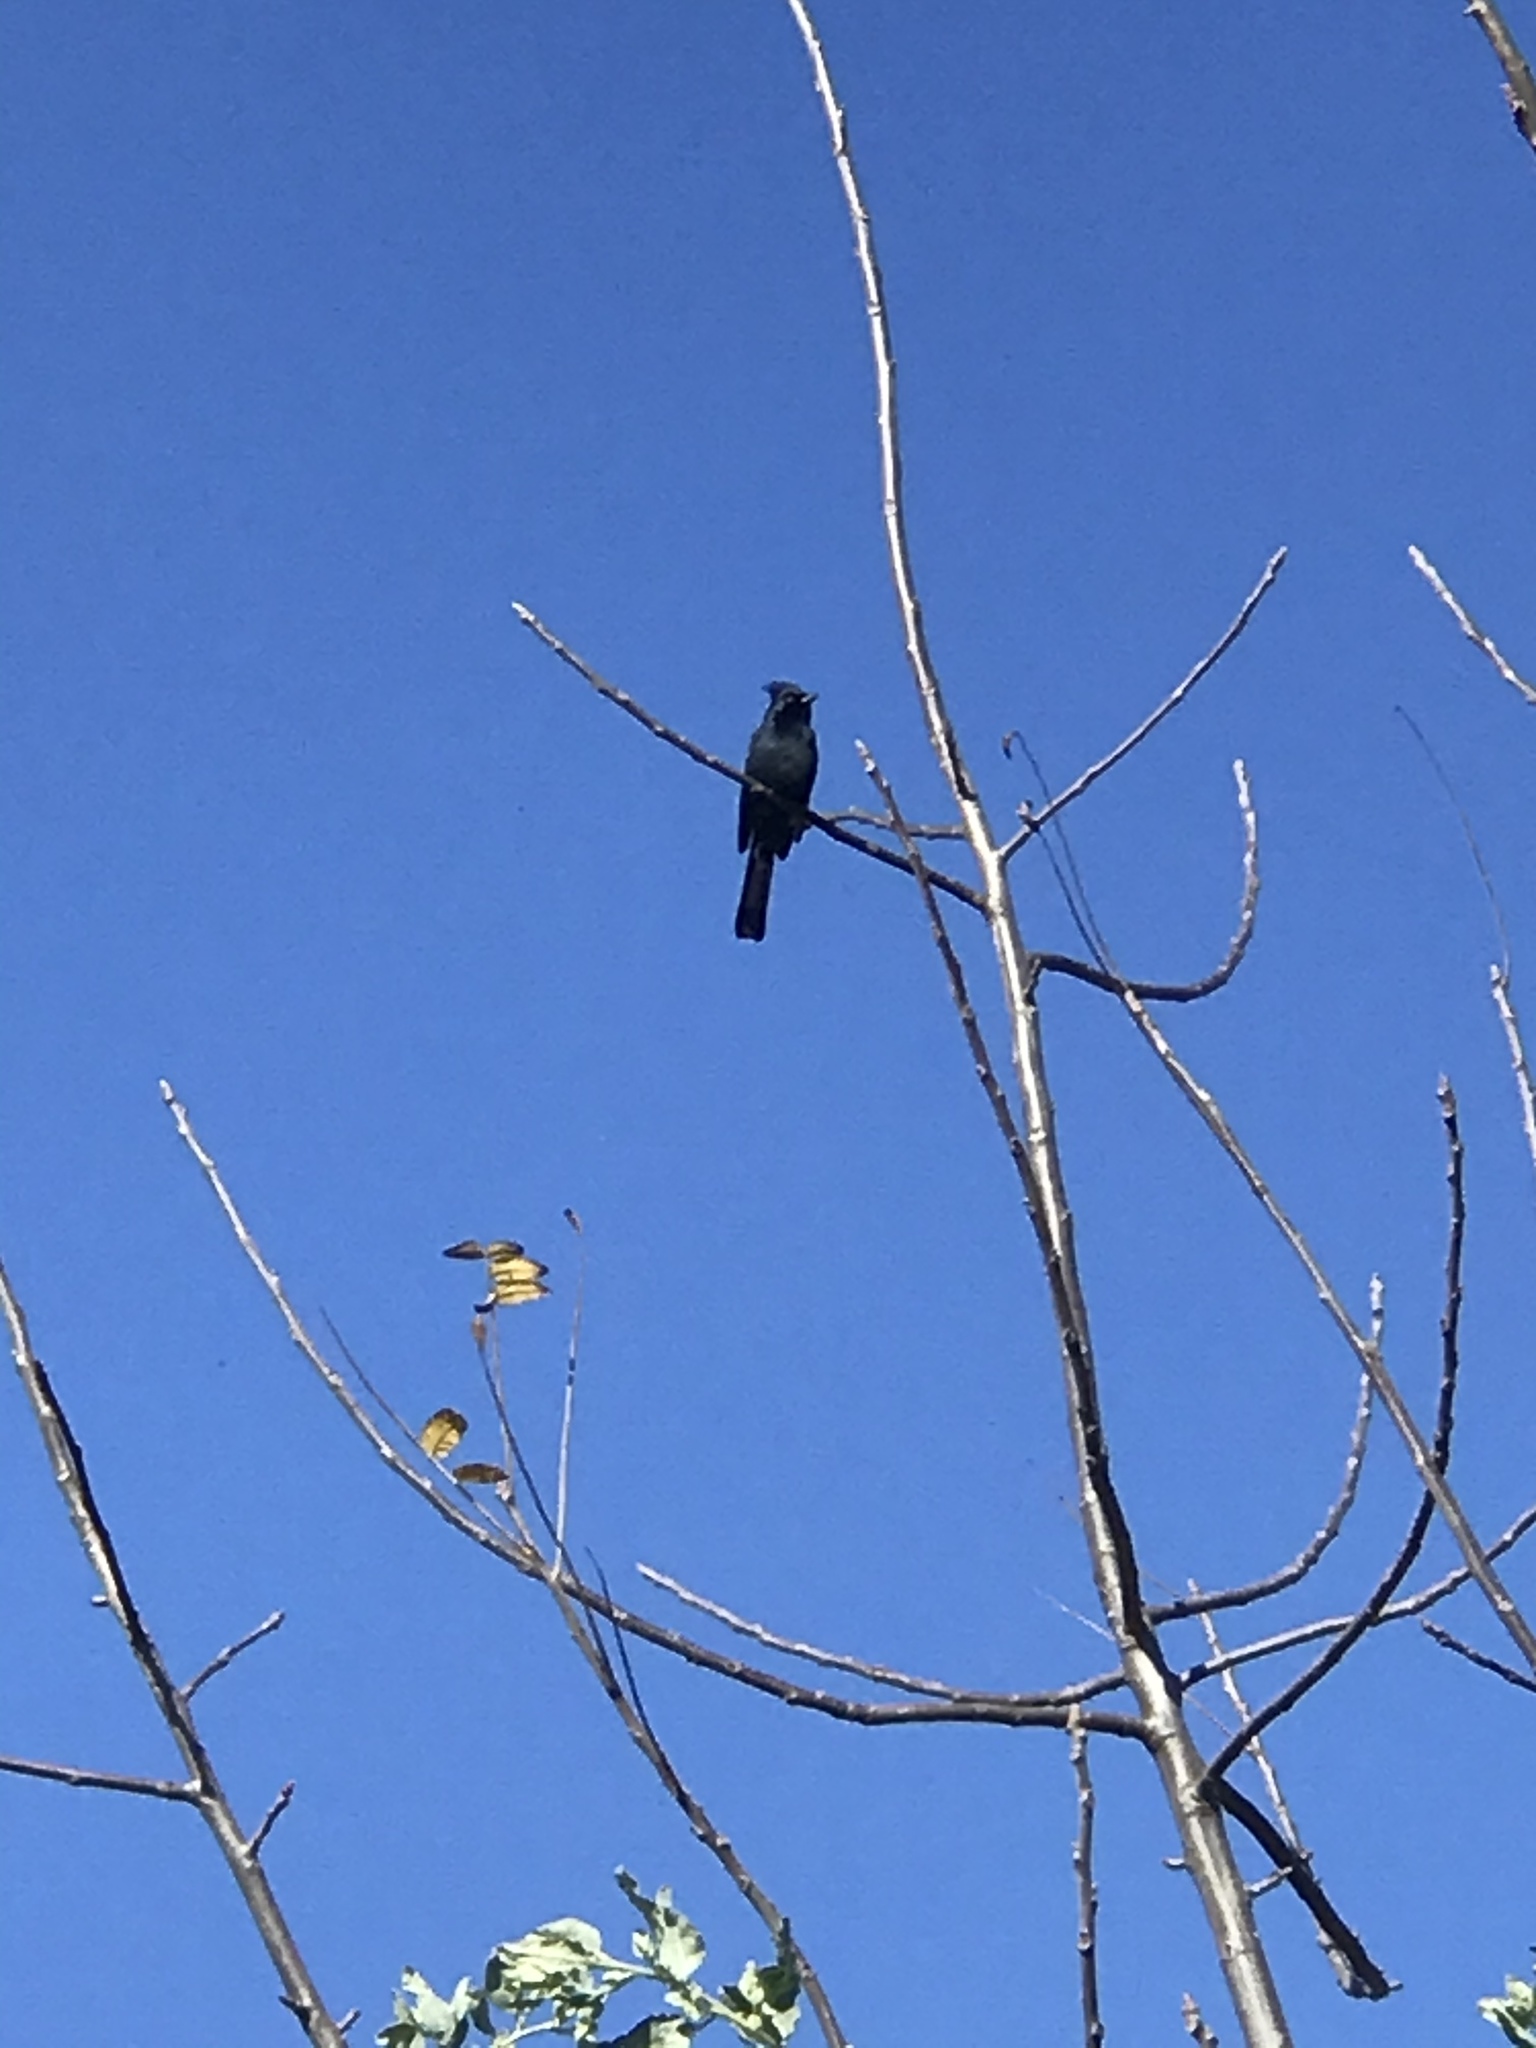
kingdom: Animalia
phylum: Chordata
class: Aves
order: Passeriformes
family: Ptilogonatidae
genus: Phainopepla
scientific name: Phainopepla nitens
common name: Phainopepla
